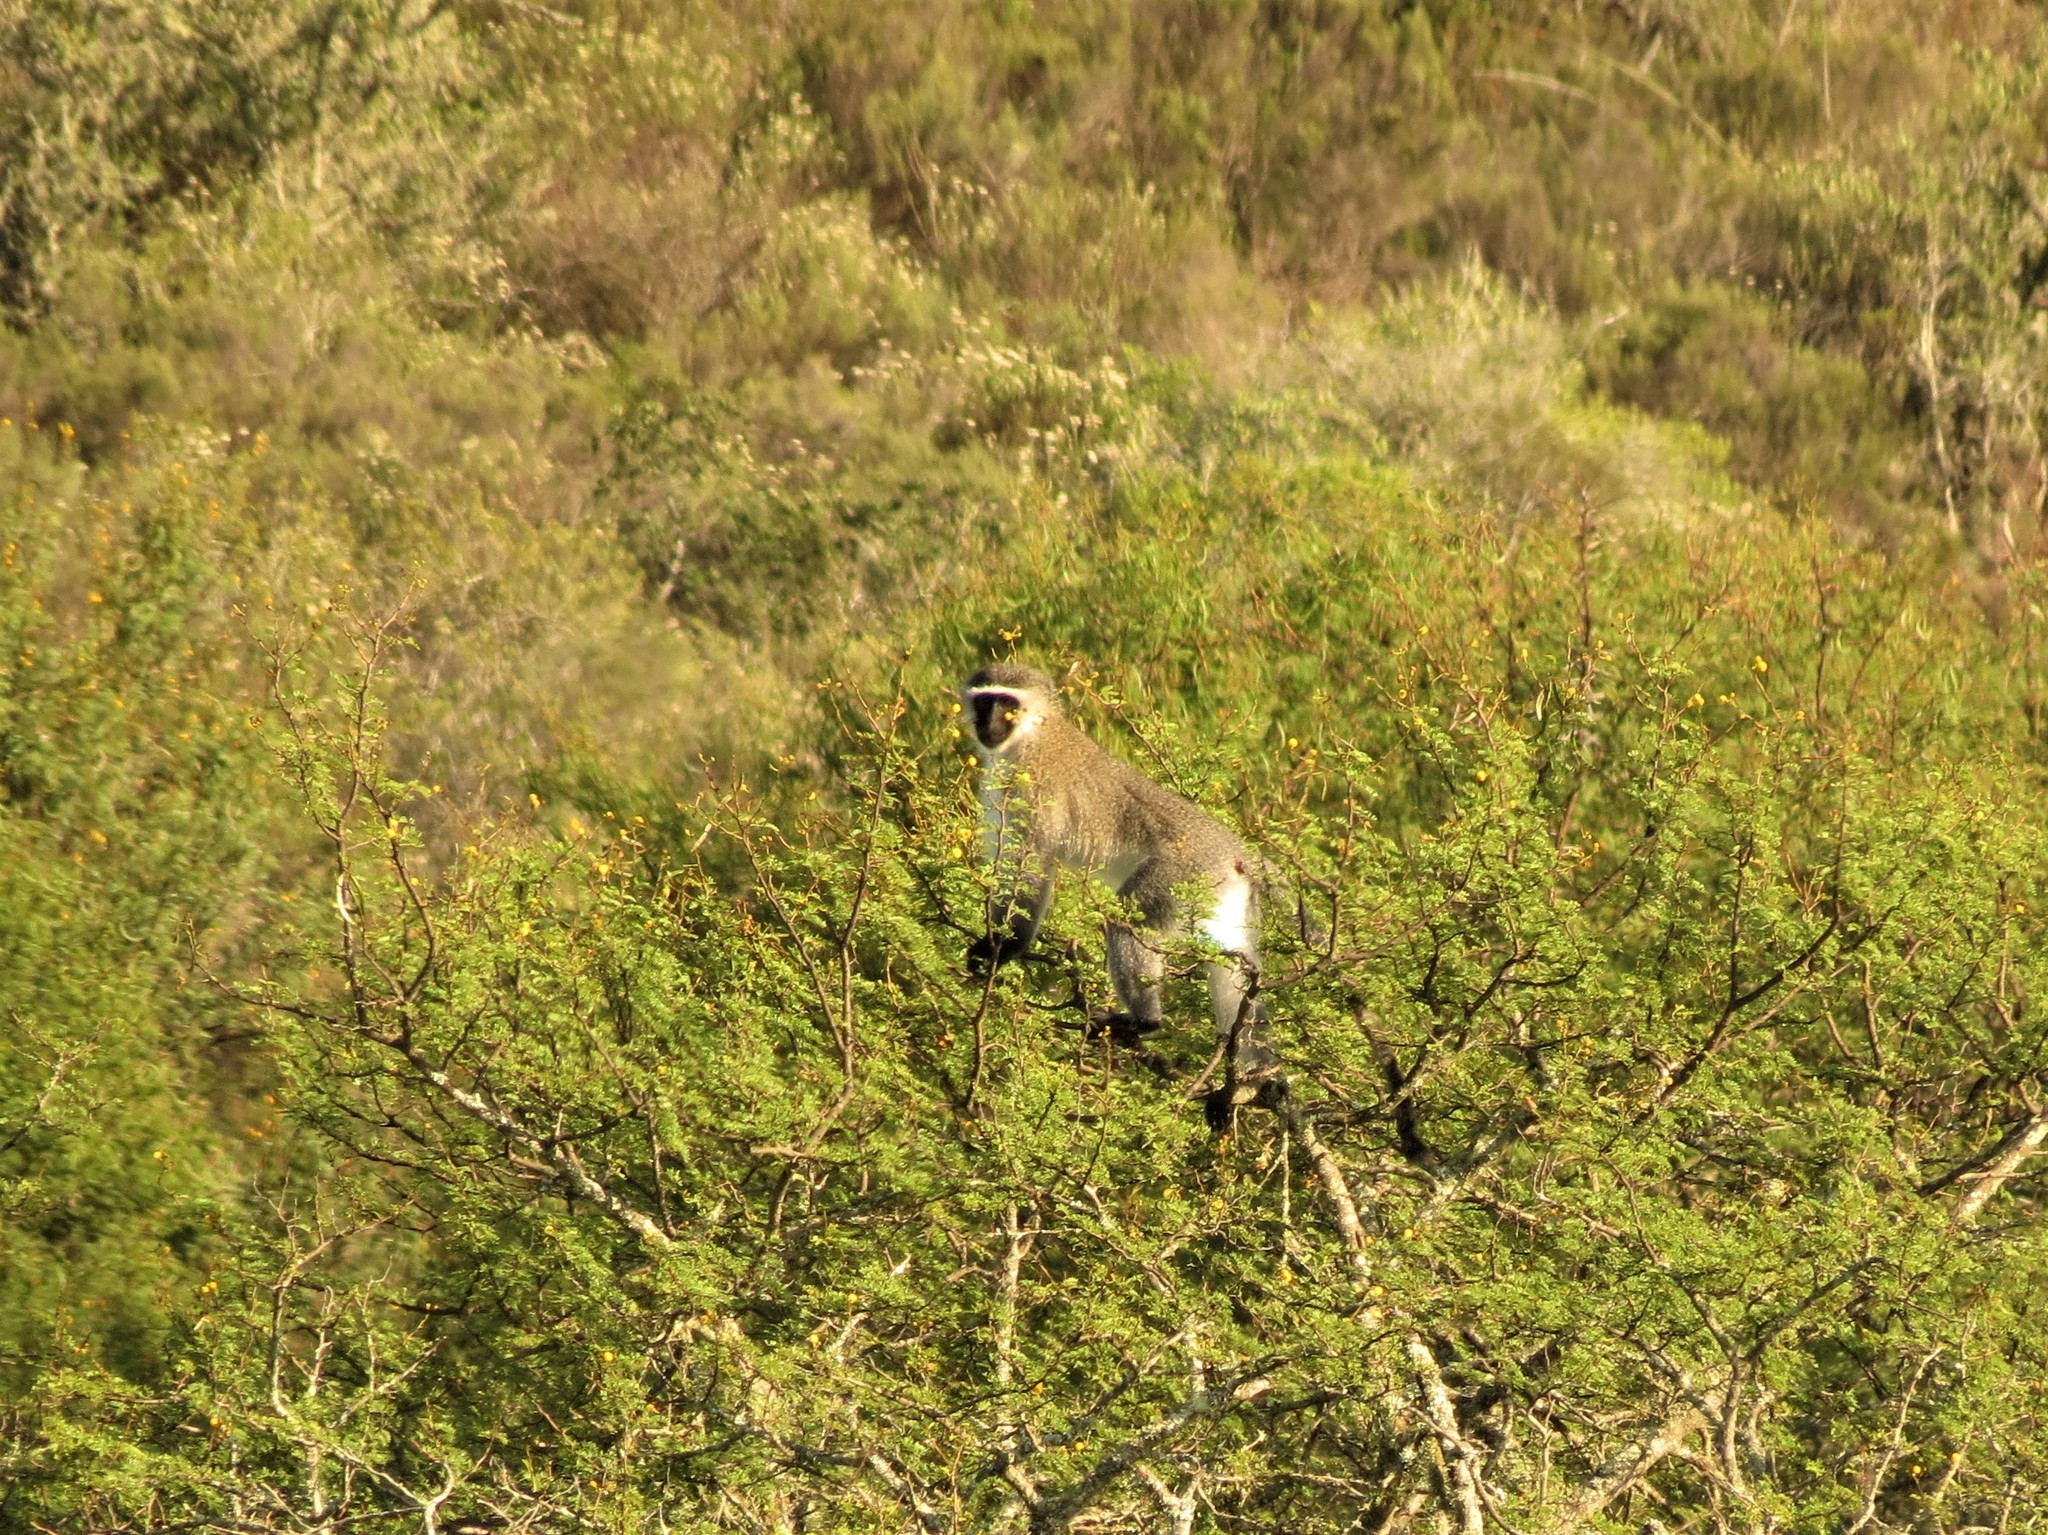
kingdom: Animalia
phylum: Chordata
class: Mammalia
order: Primates
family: Cercopithecidae
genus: Chlorocebus
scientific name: Chlorocebus pygerythrus
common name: Vervet monkey
